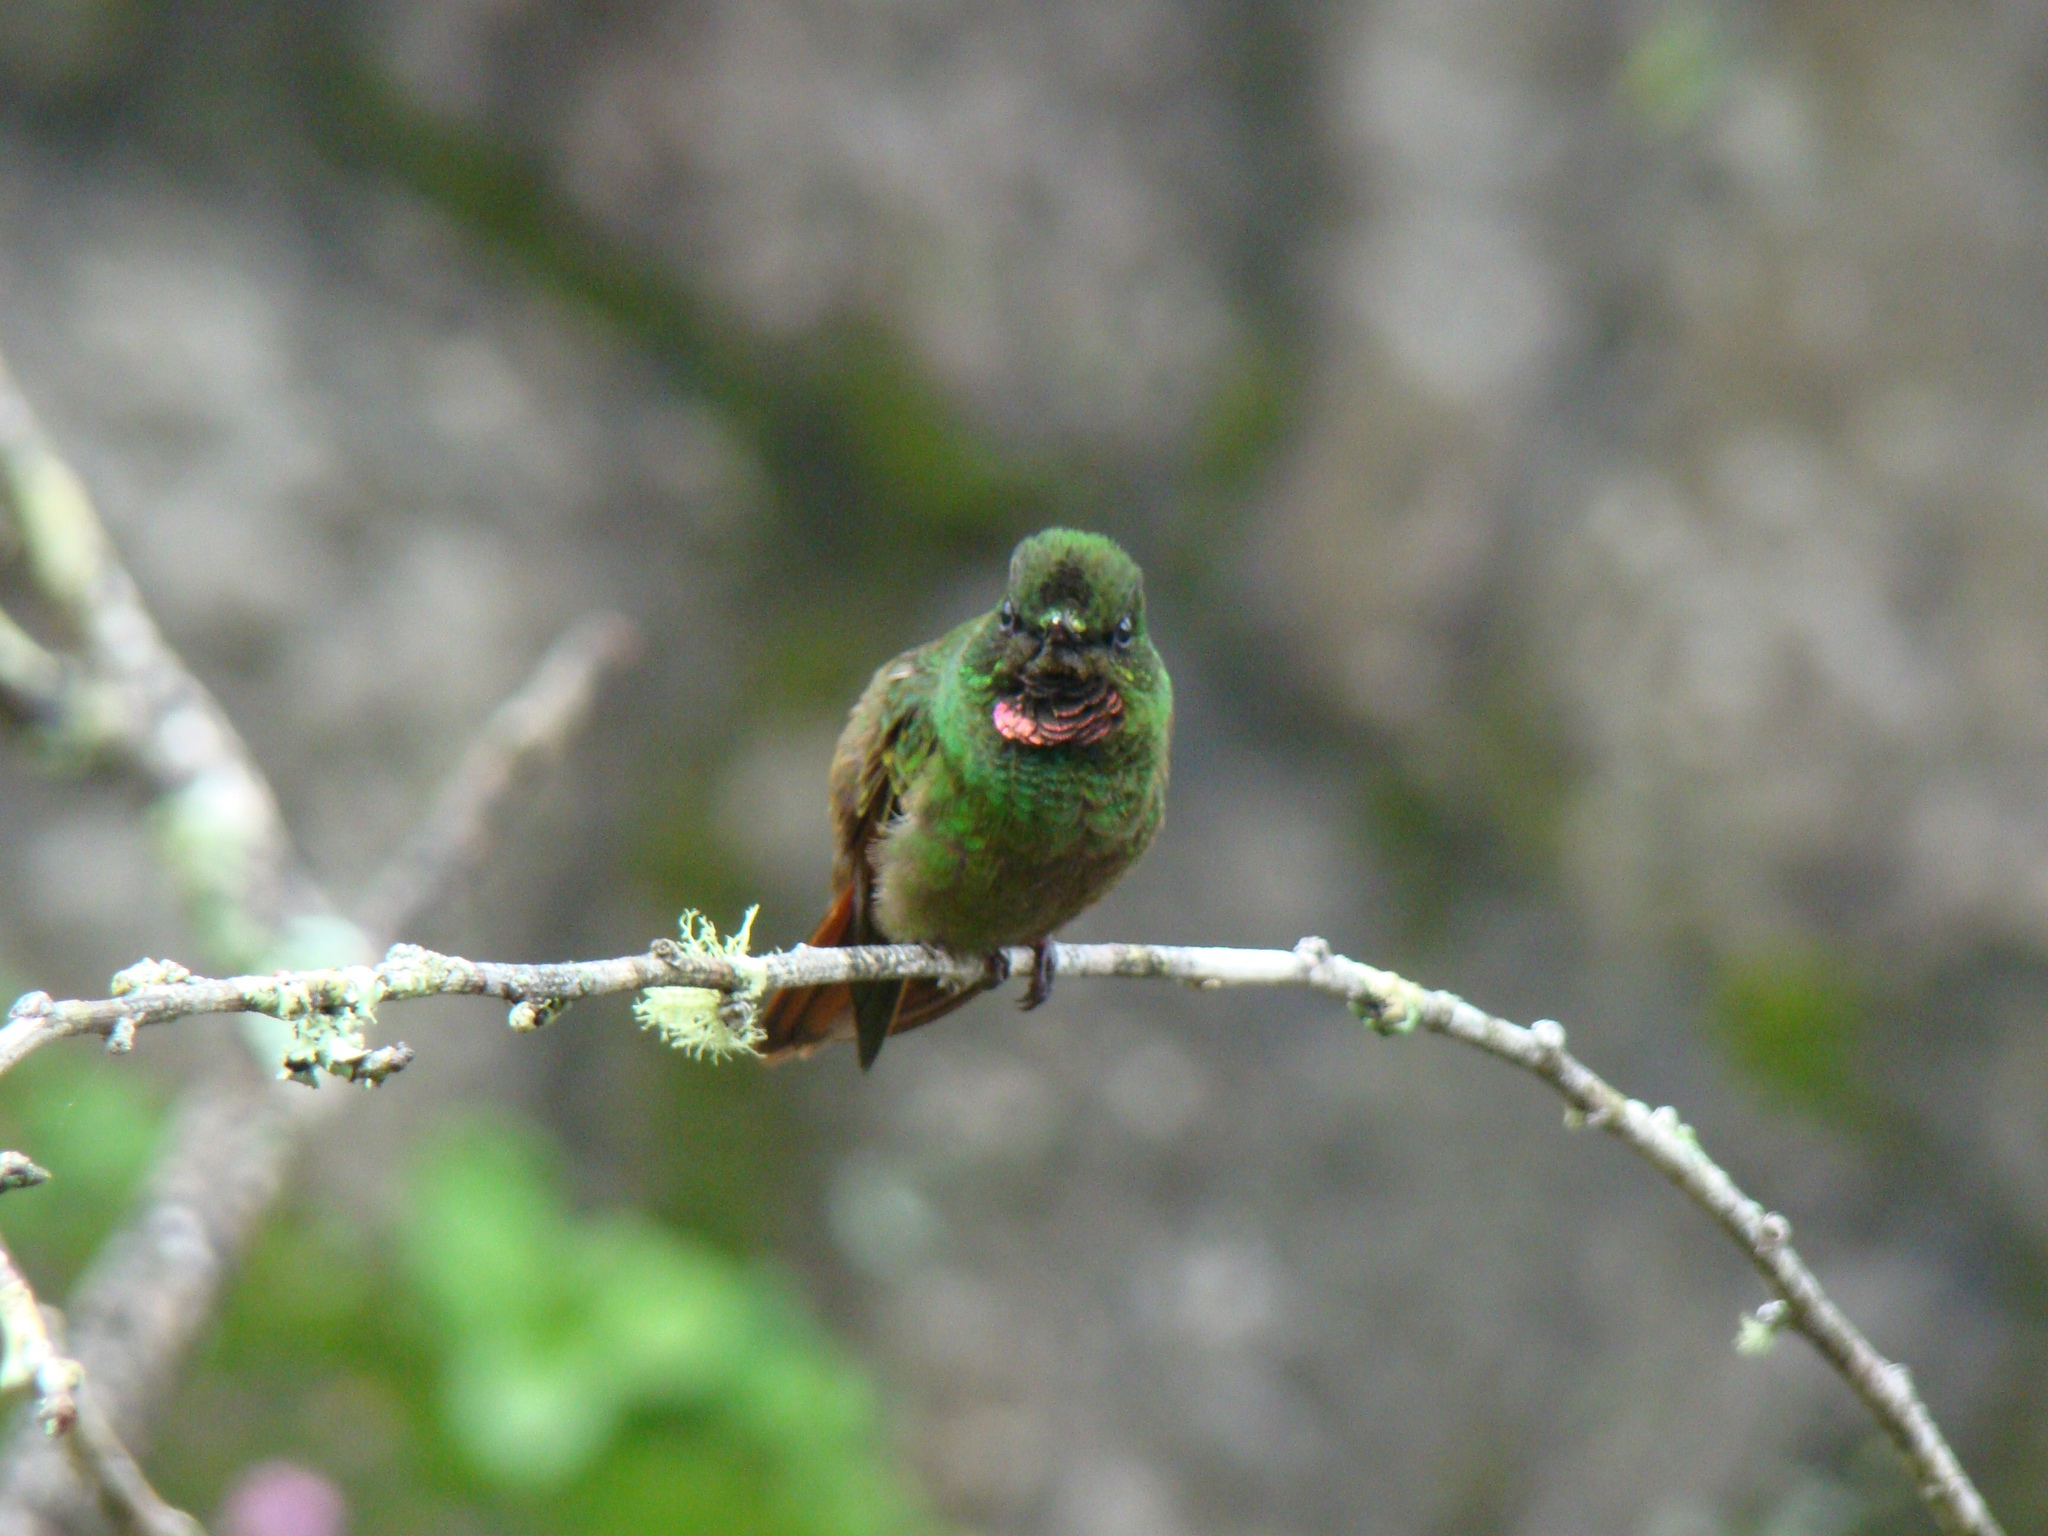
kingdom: Animalia
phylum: Chordata
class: Aves
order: Apodiformes
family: Trochilidae
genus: Clytolaema
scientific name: Clytolaema rubricauda
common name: Brazilian ruby
